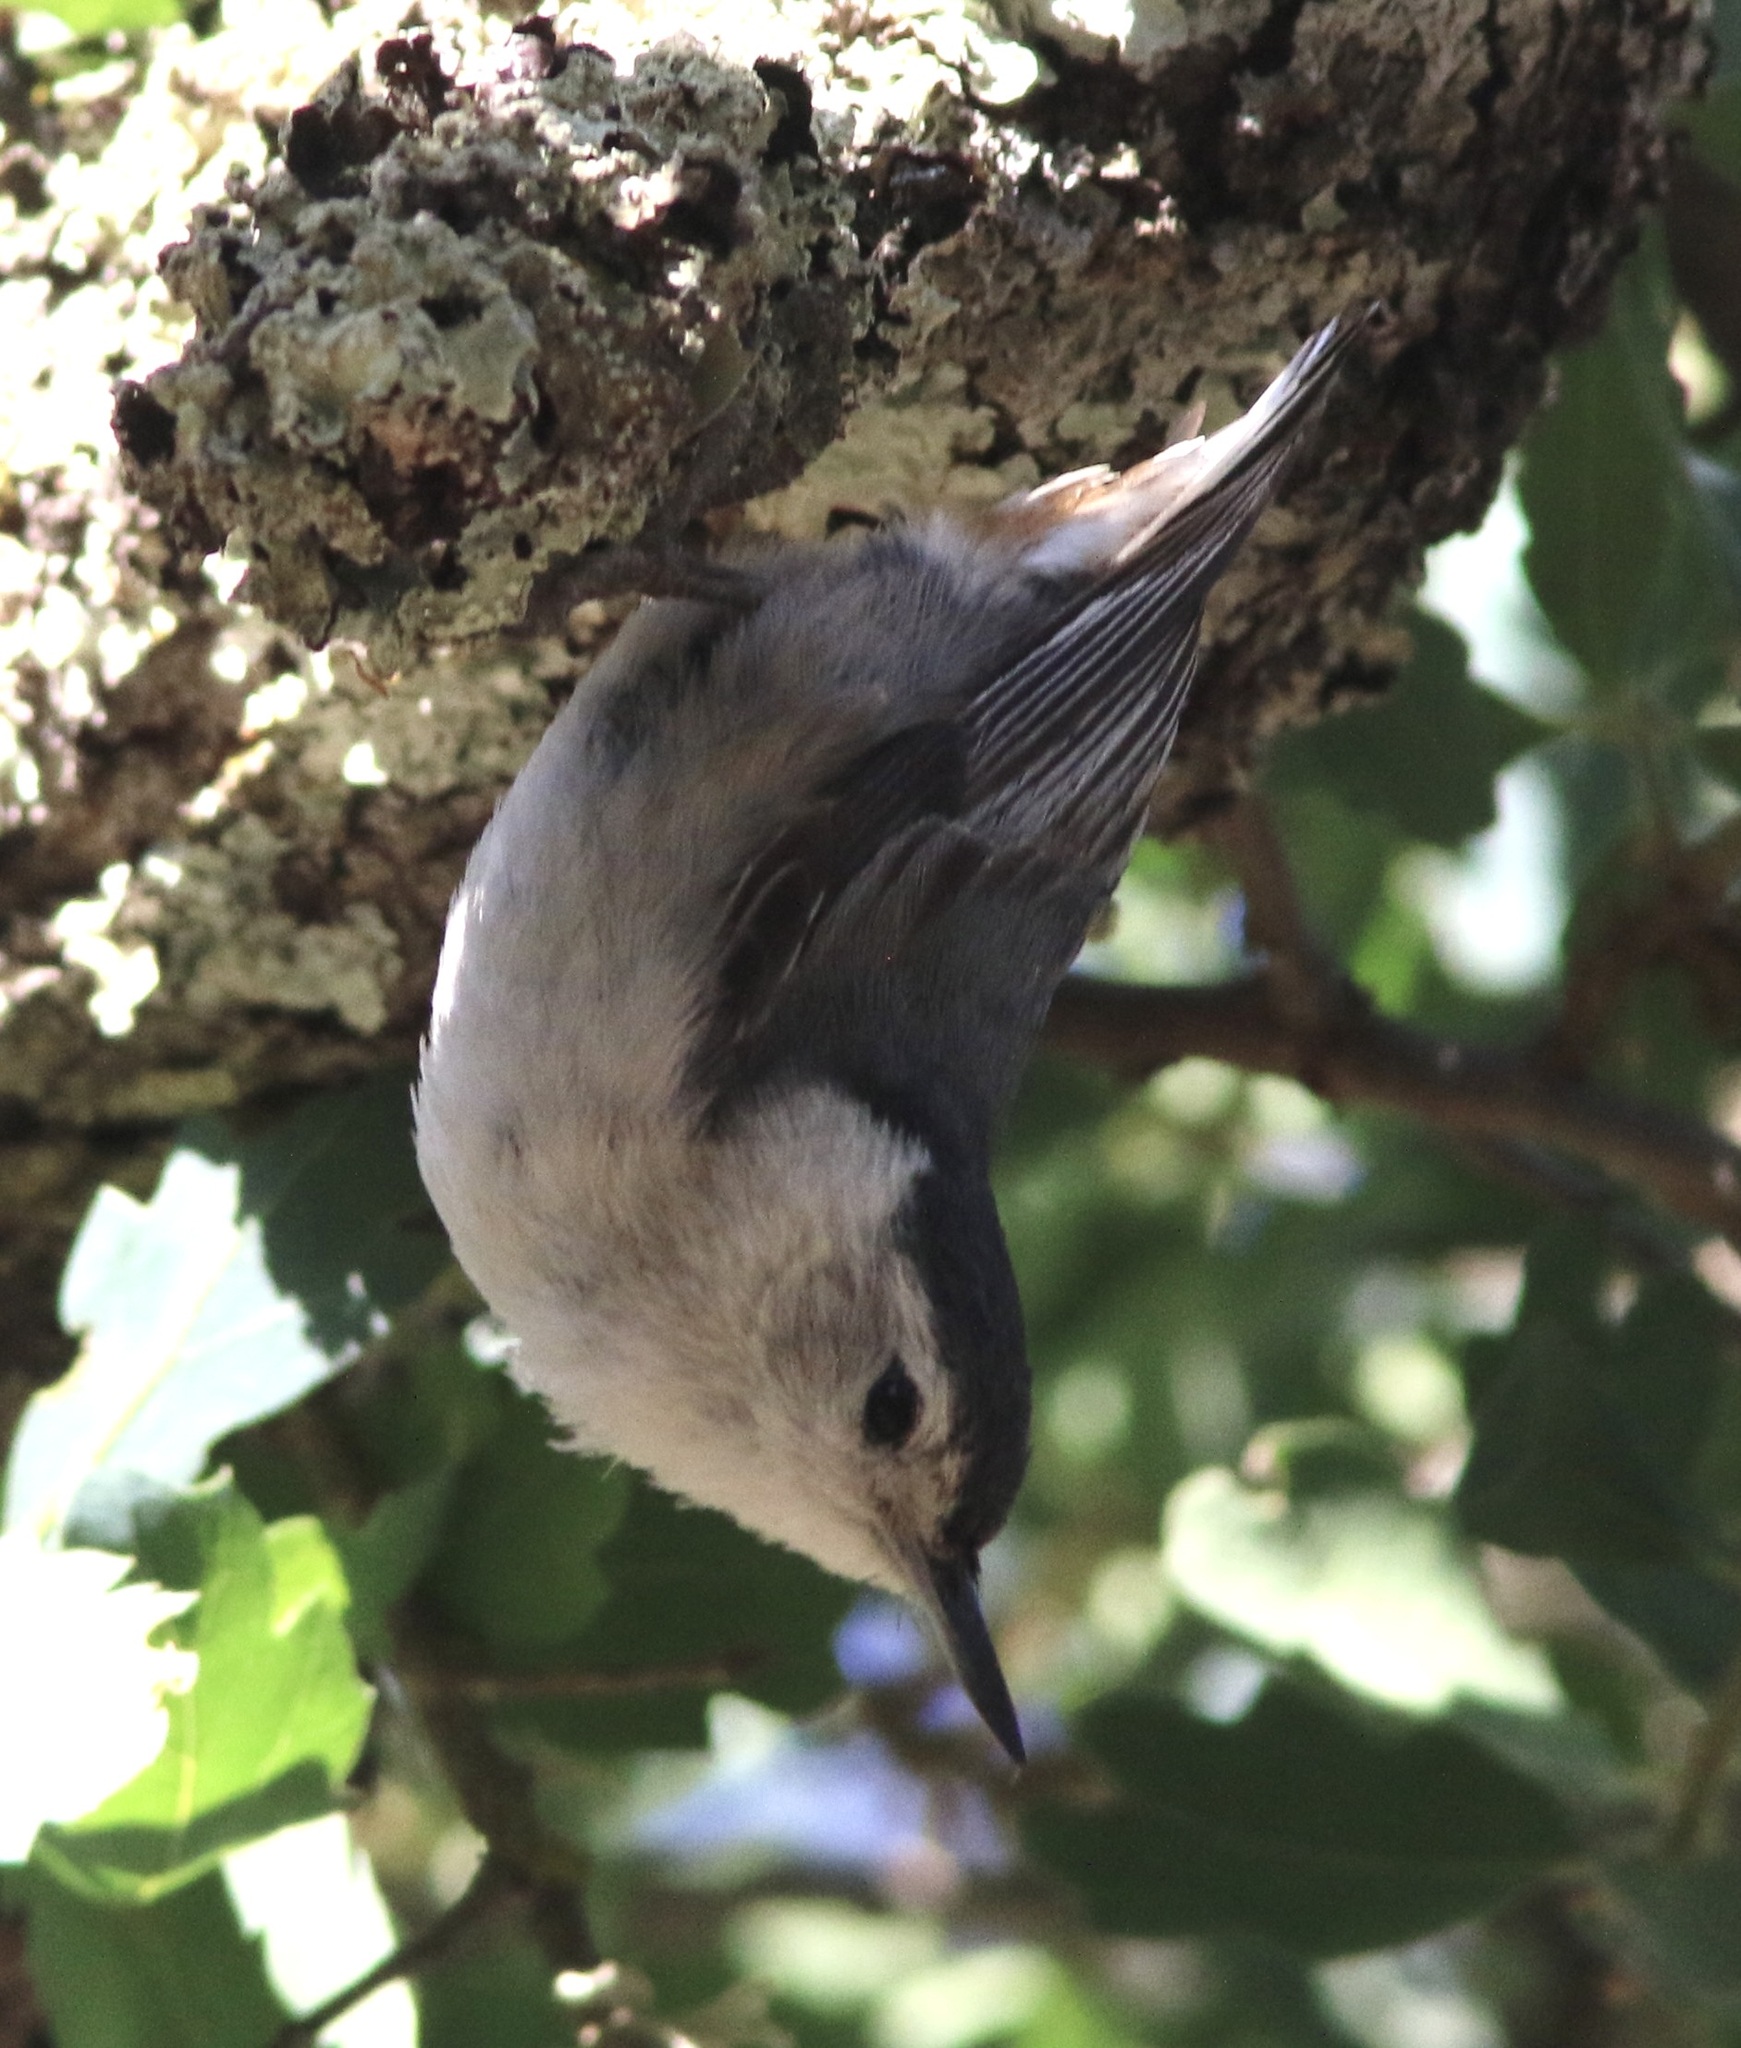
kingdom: Animalia
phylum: Chordata
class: Aves
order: Passeriformes
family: Sittidae
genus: Sitta
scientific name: Sitta carolinensis
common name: White-breasted nuthatch
